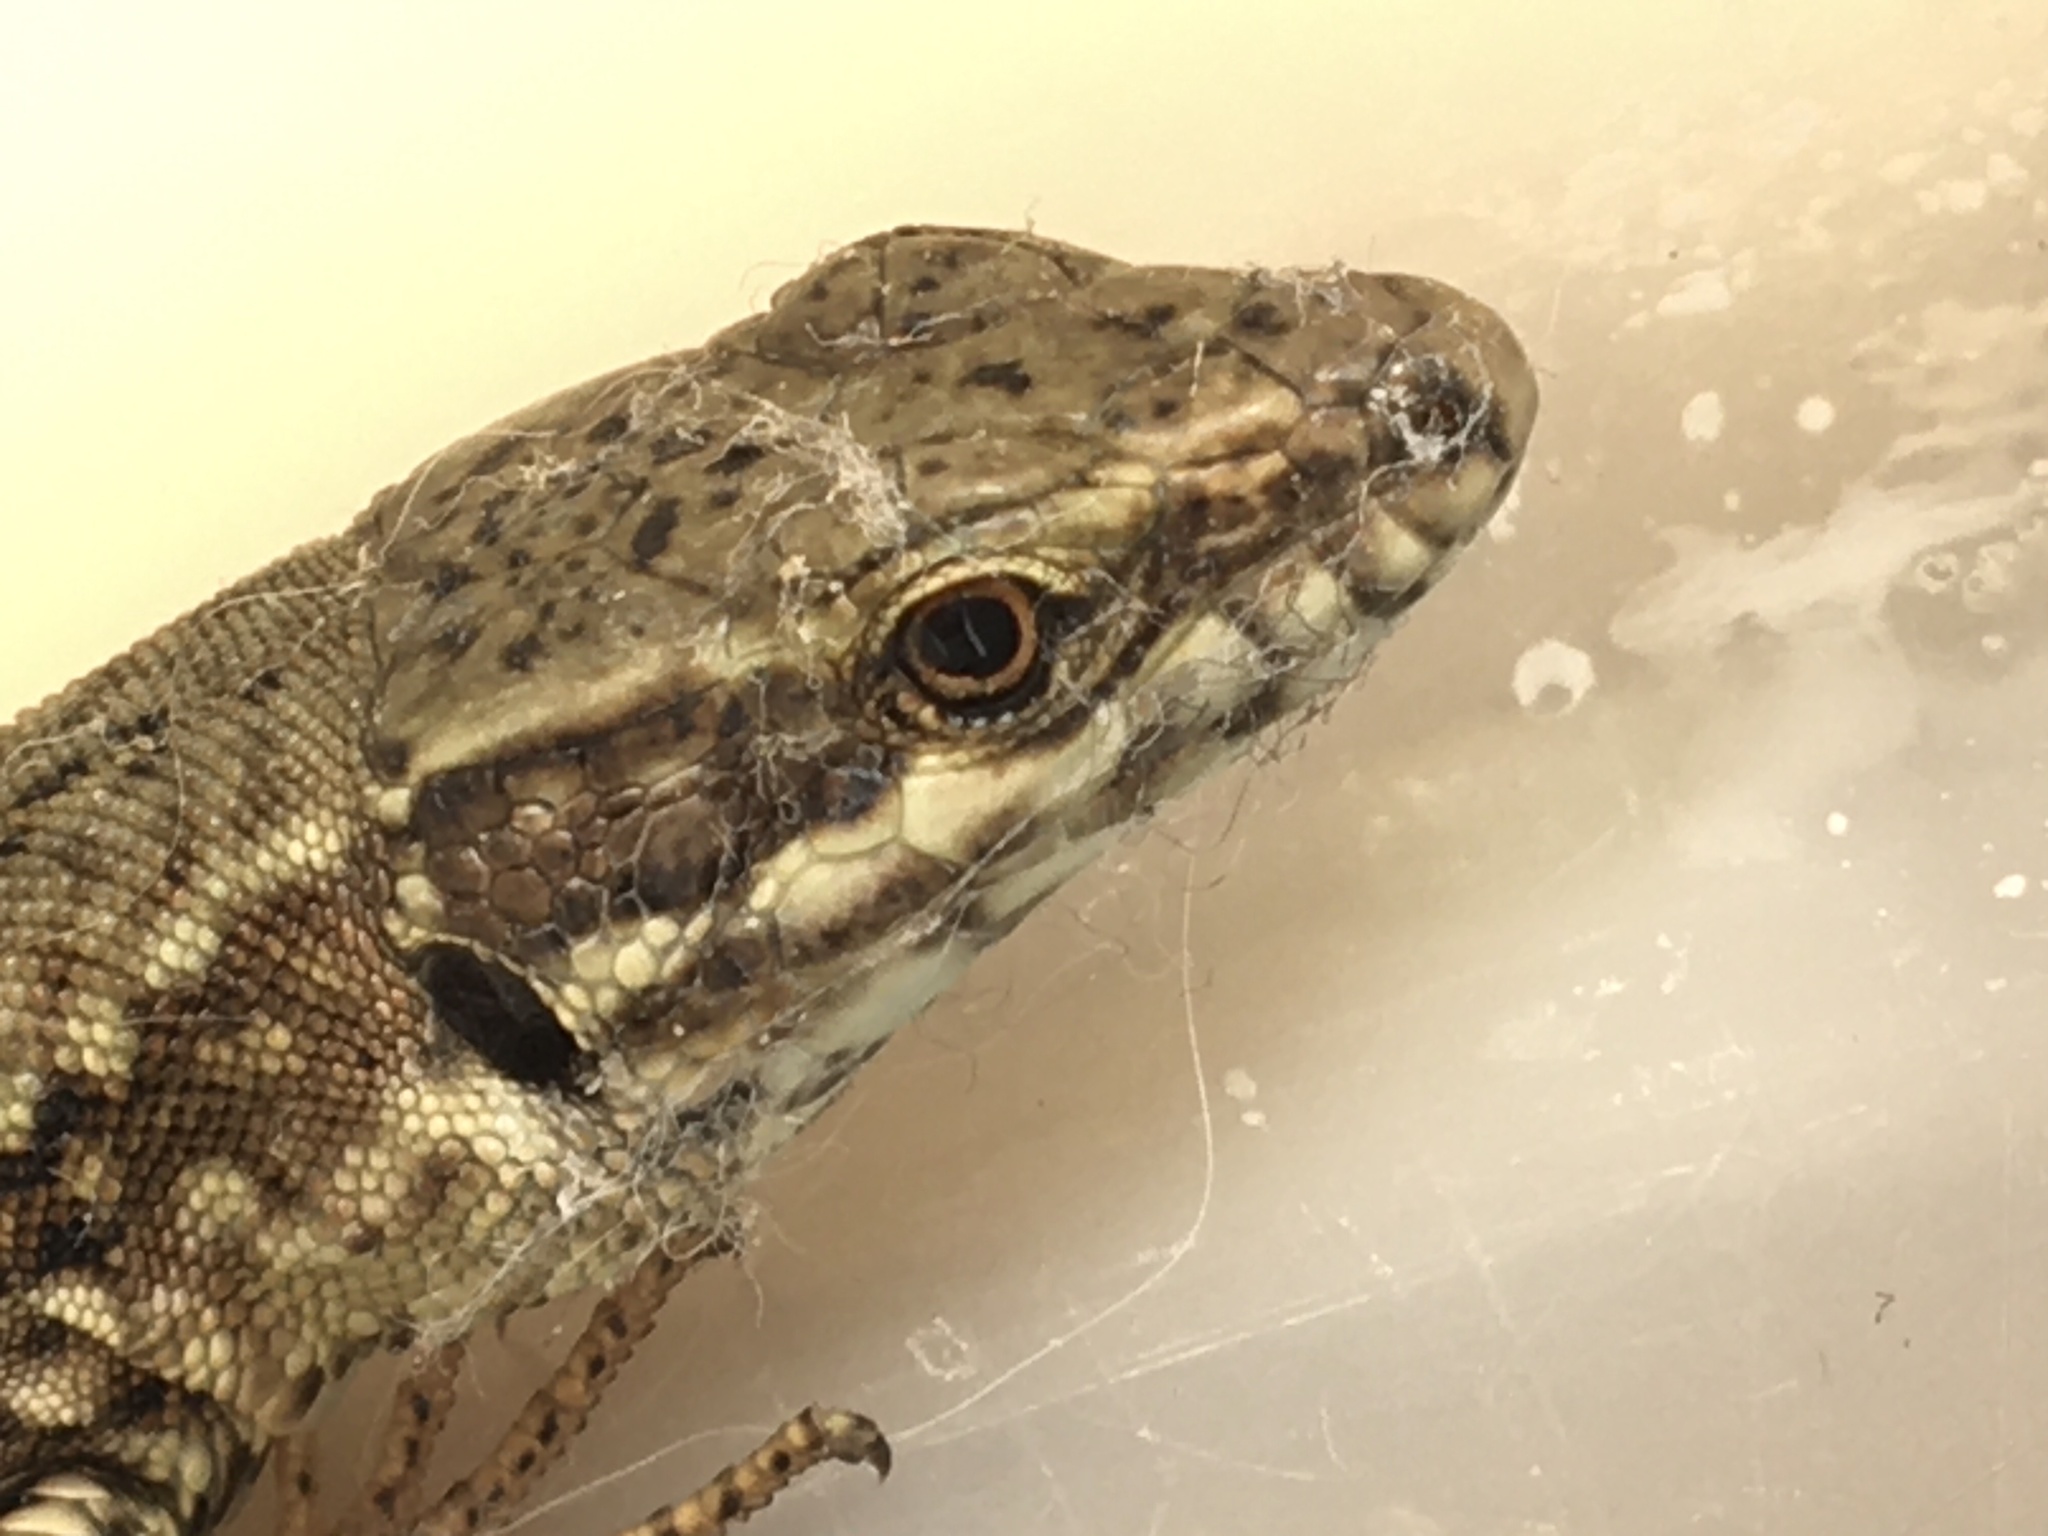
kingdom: Animalia
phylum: Chordata
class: Squamata
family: Lacertidae
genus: Podarcis
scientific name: Podarcis muralis
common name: Common wall lizard
